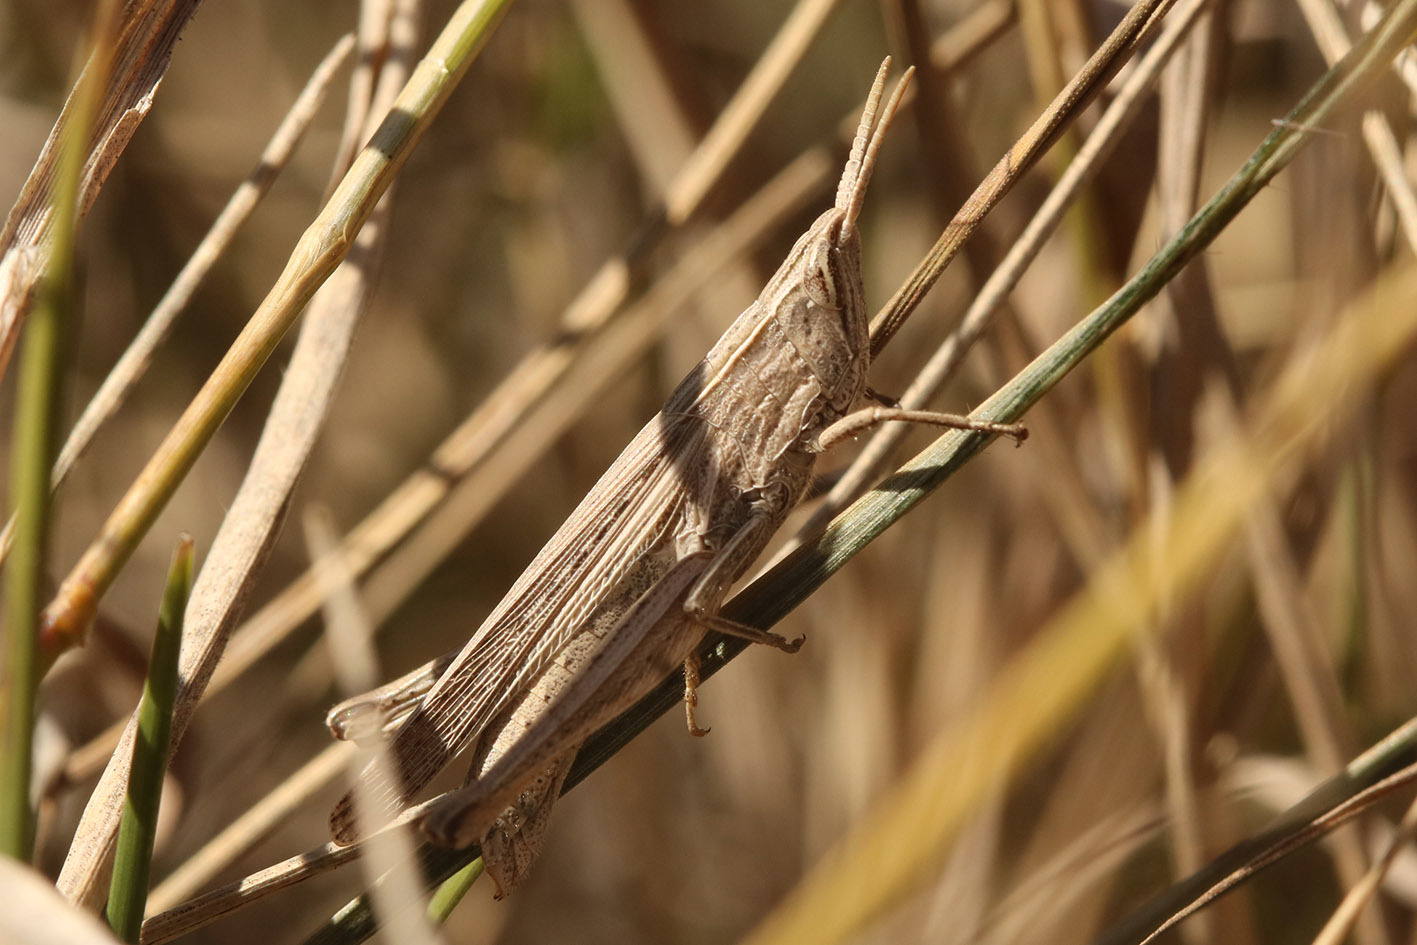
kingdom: Animalia
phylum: Arthropoda
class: Insecta
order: Orthoptera
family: Acrididae
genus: Laplatacris
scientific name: Laplatacris dispar
